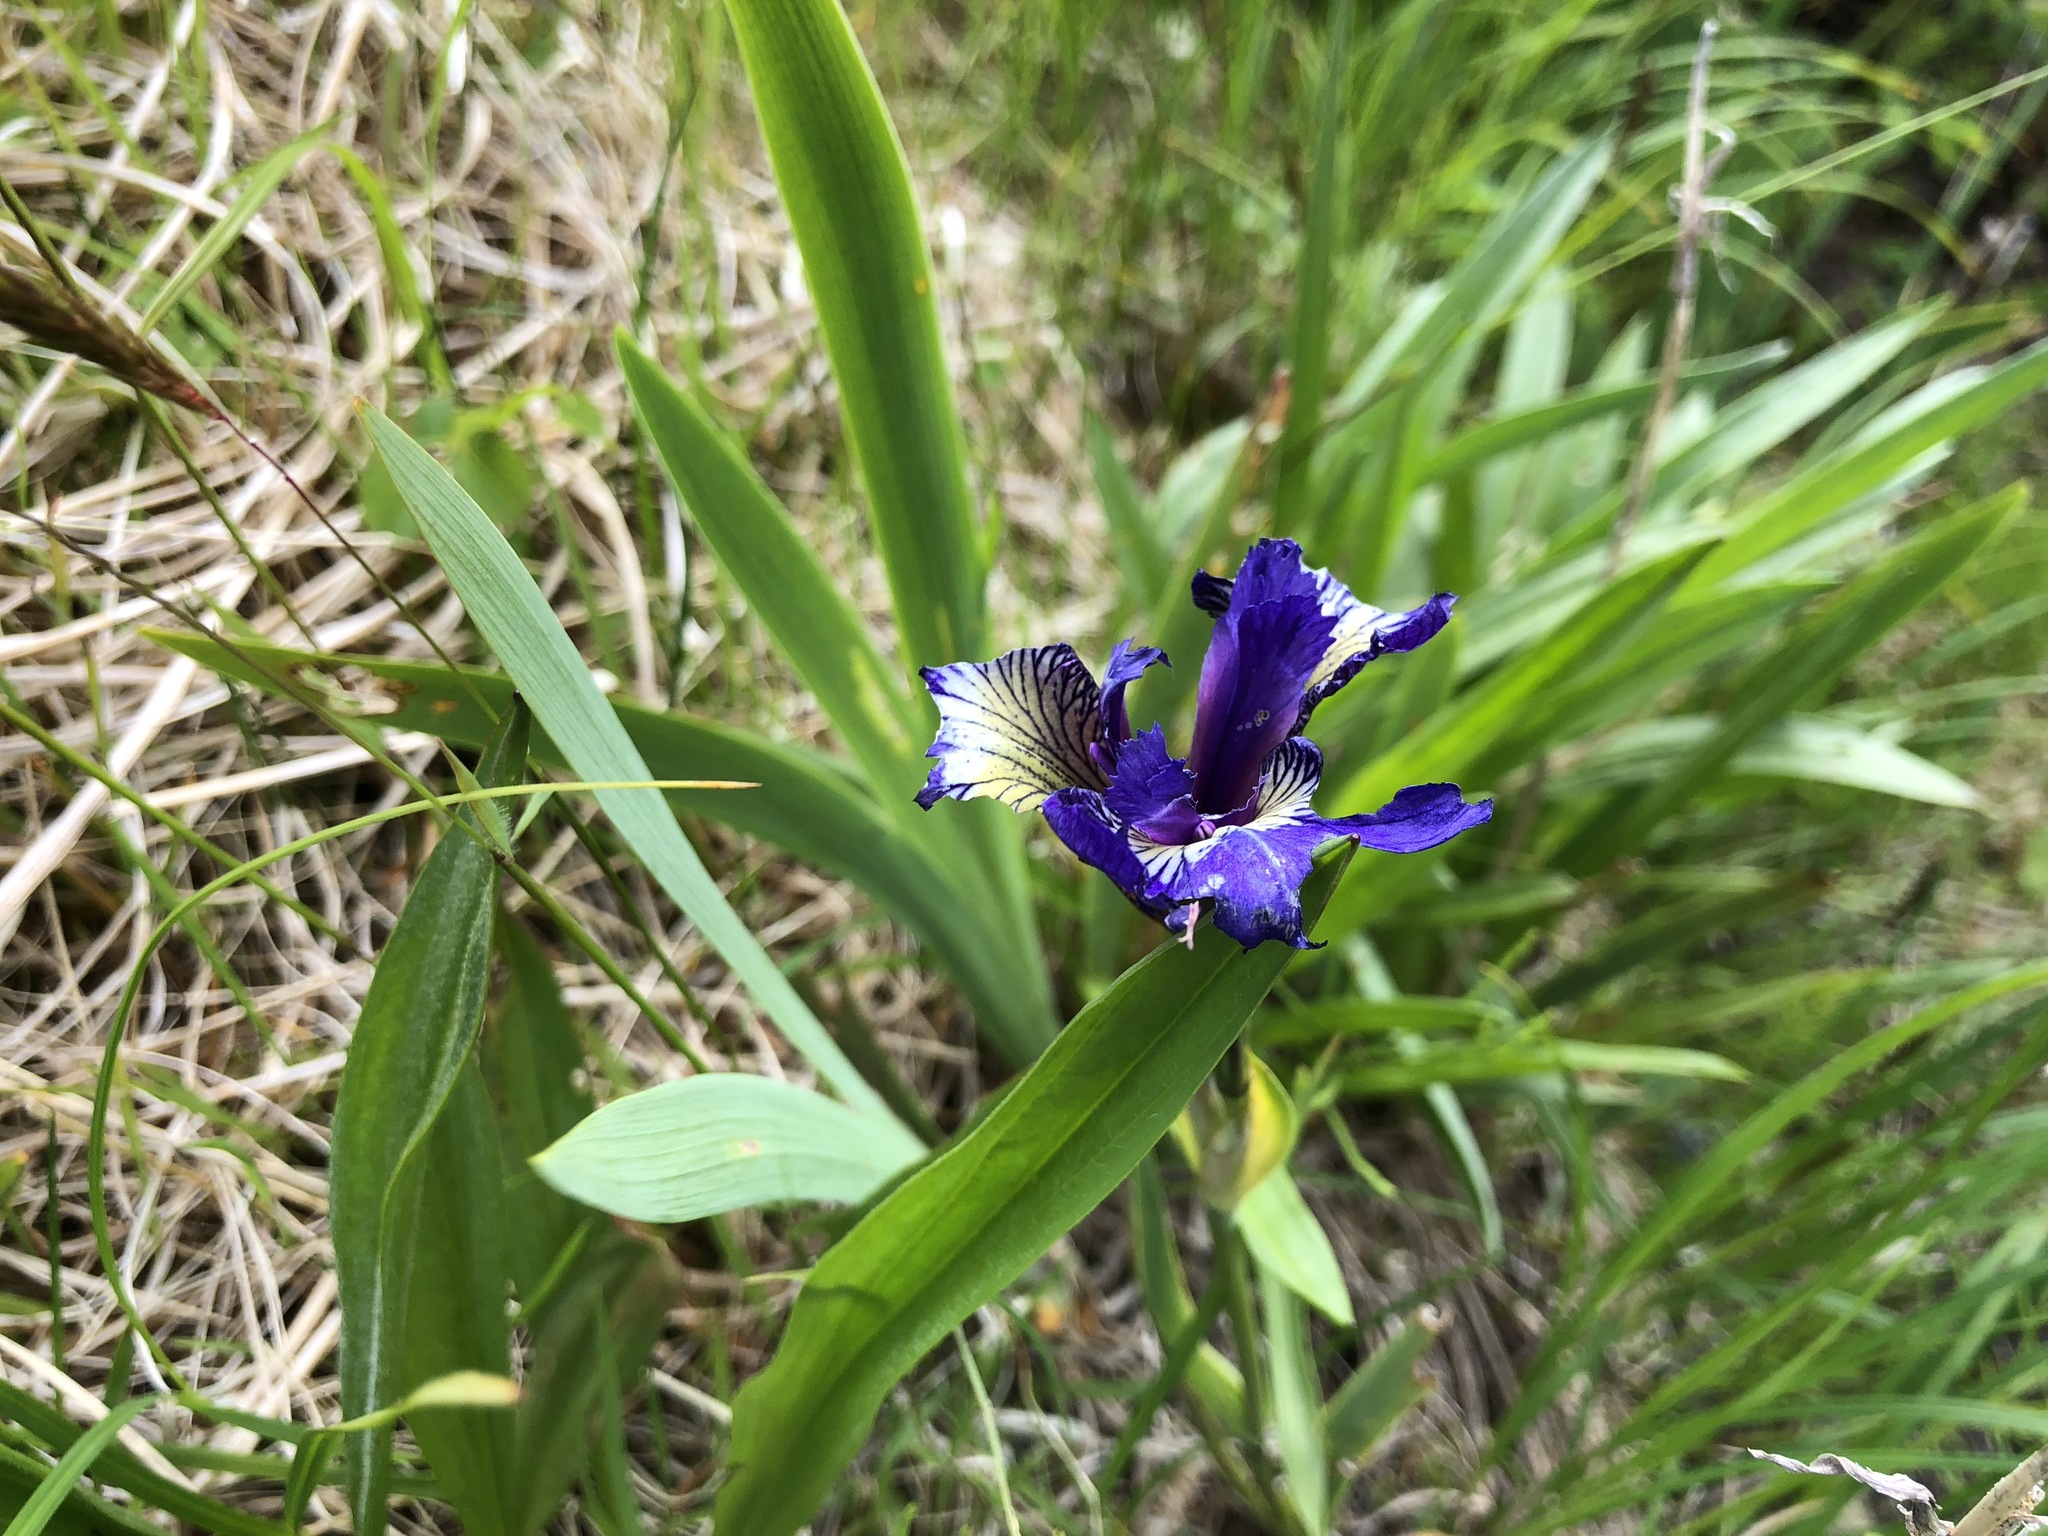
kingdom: Plantae
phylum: Tracheophyta
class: Liliopsida
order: Asparagales
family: Iridaceae
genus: Iris
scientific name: Iris setosa
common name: Arctic blue flag
